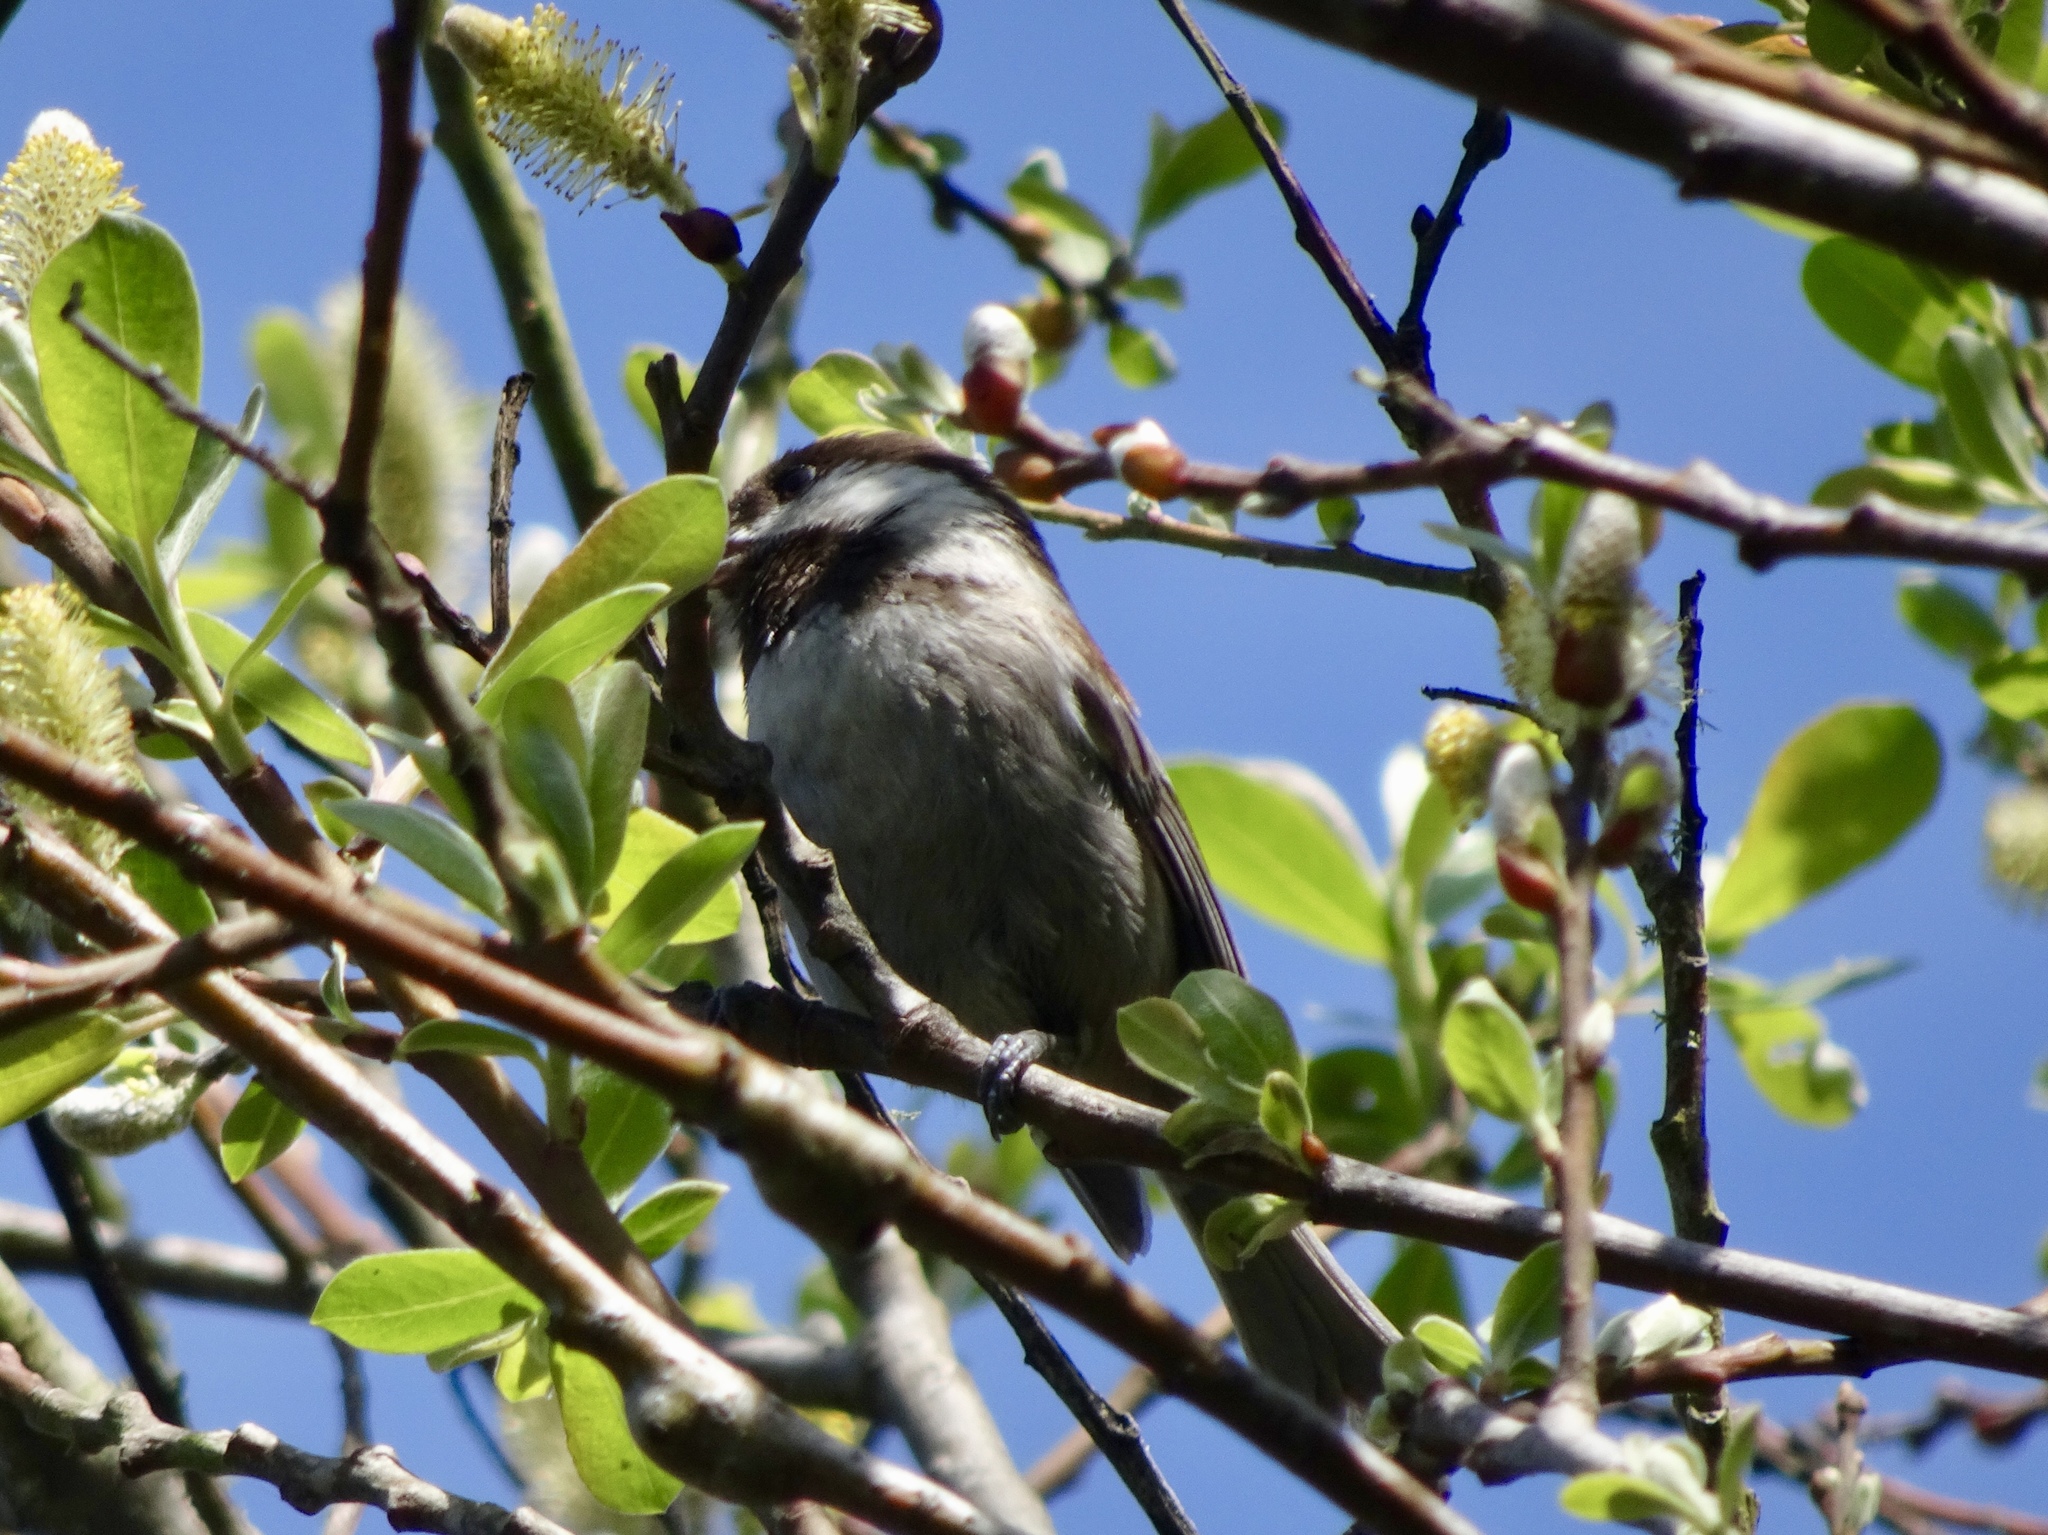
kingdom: Animalia
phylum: Chordata
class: Aves
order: Passeriformes
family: Paridae
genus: Poecile
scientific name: Poecile rufescens
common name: Chestnut-backed chickadee
